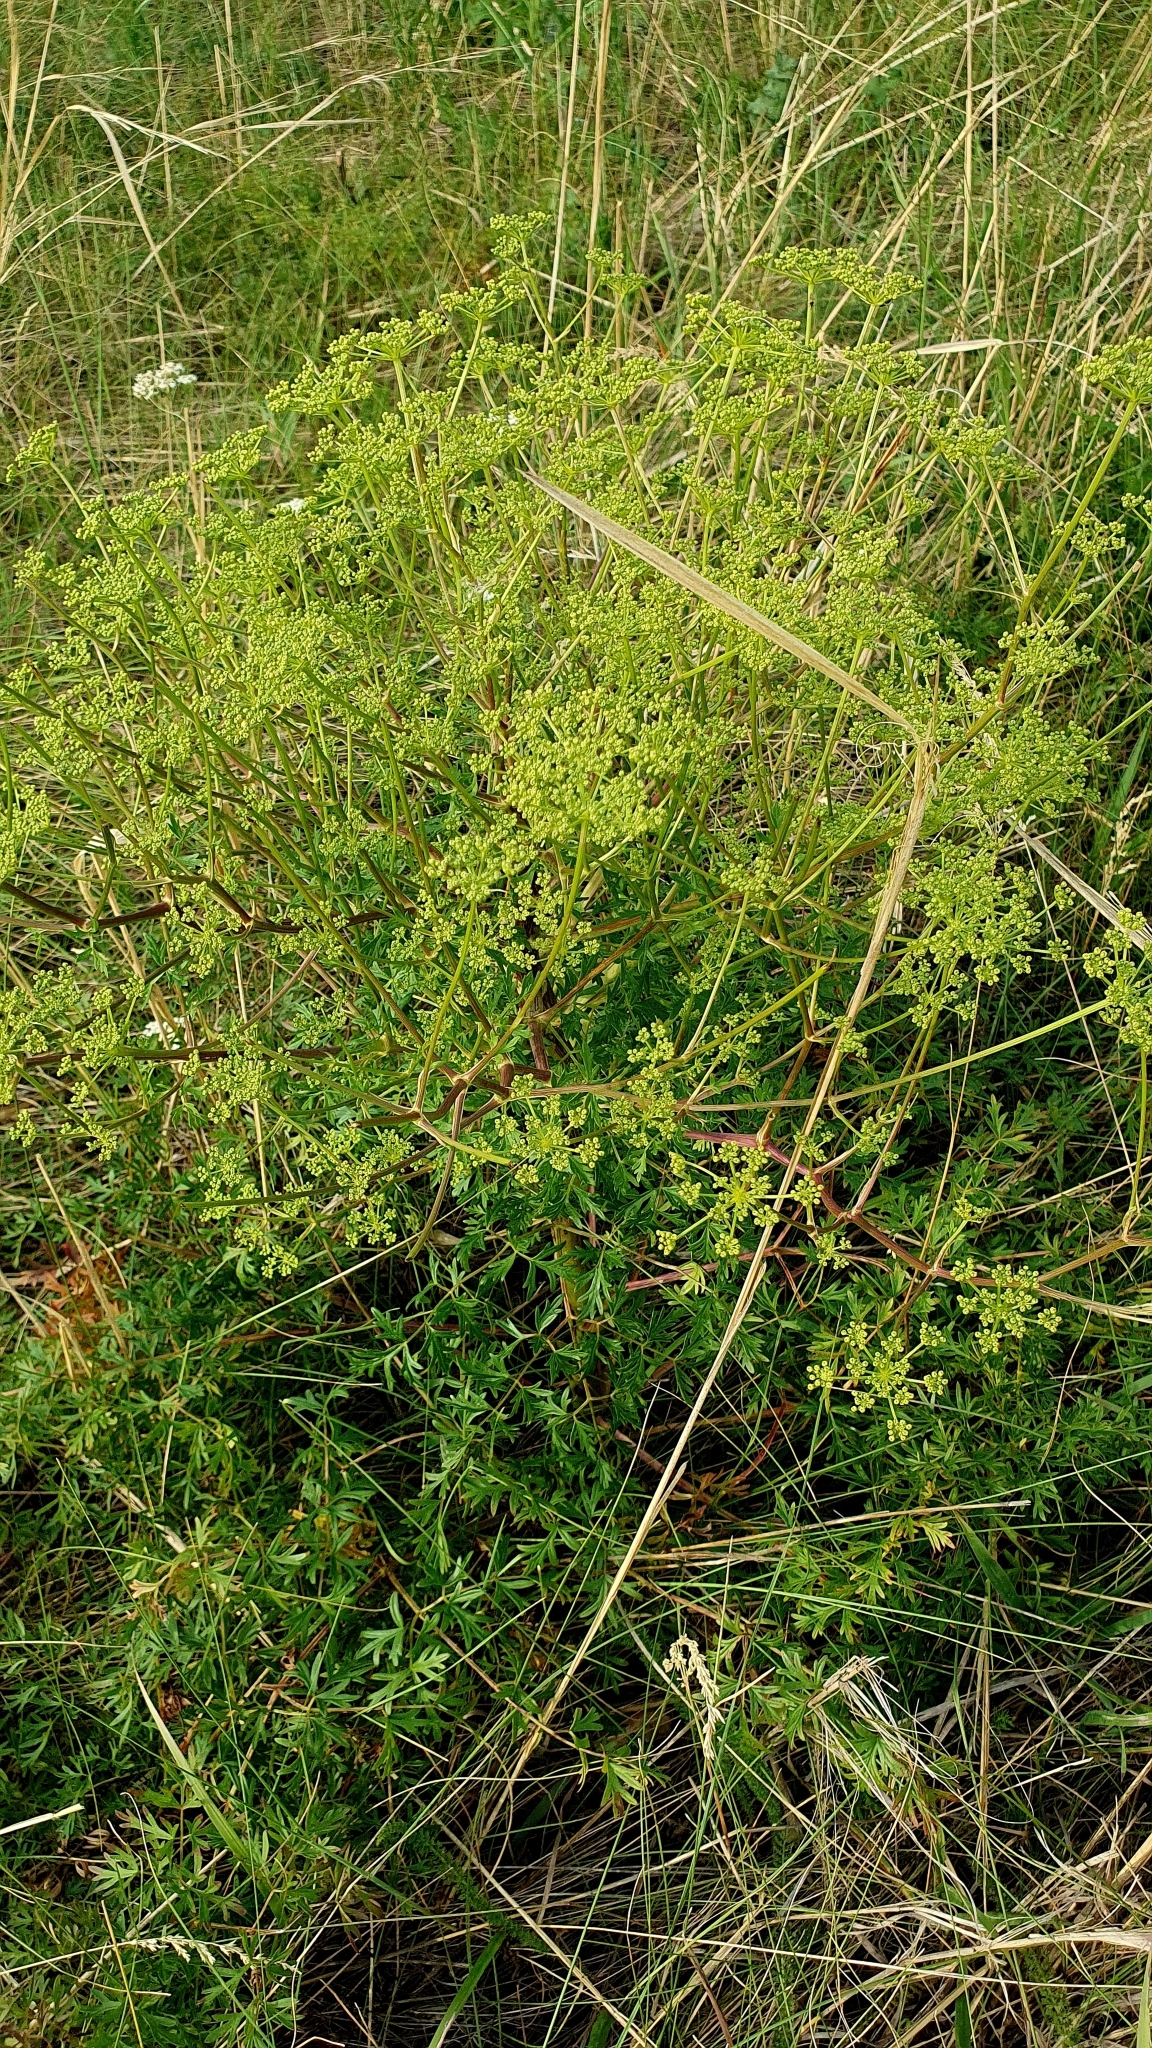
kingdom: Plantae
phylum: Tracheophyta
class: Magnoliopsida
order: Apiales
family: Apiaceae
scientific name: Apiaceae
